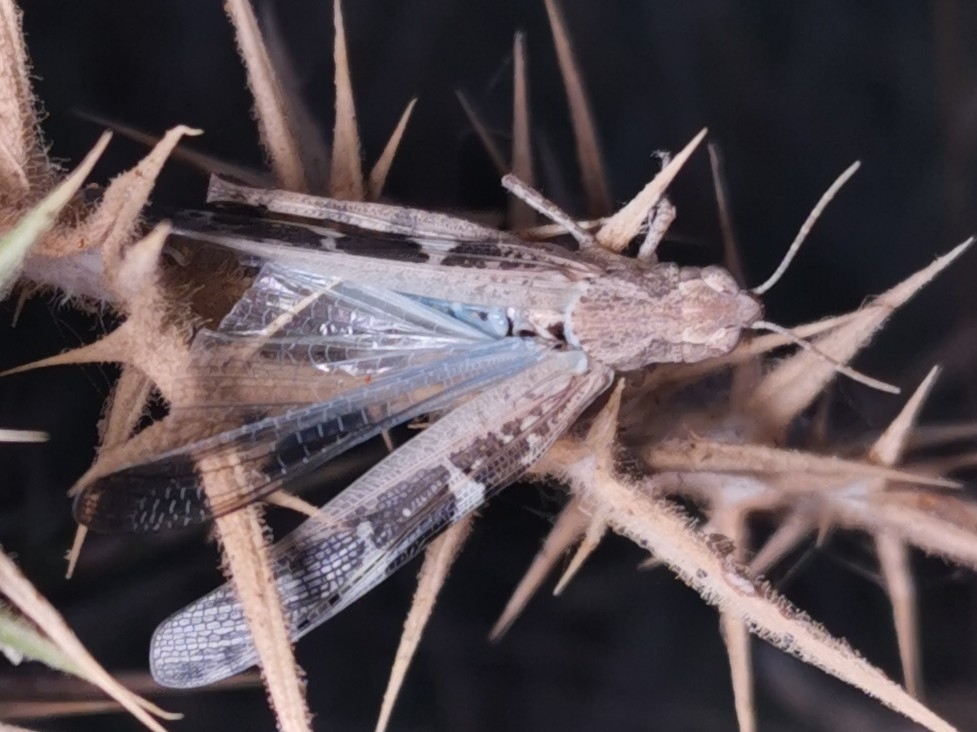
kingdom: Animalia
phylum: Arthropoda
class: Insecta
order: Orthoptera
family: Acrididae
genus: Oedipoda
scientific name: Oedipoda caerulescens
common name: Blue-winged grasshopper
